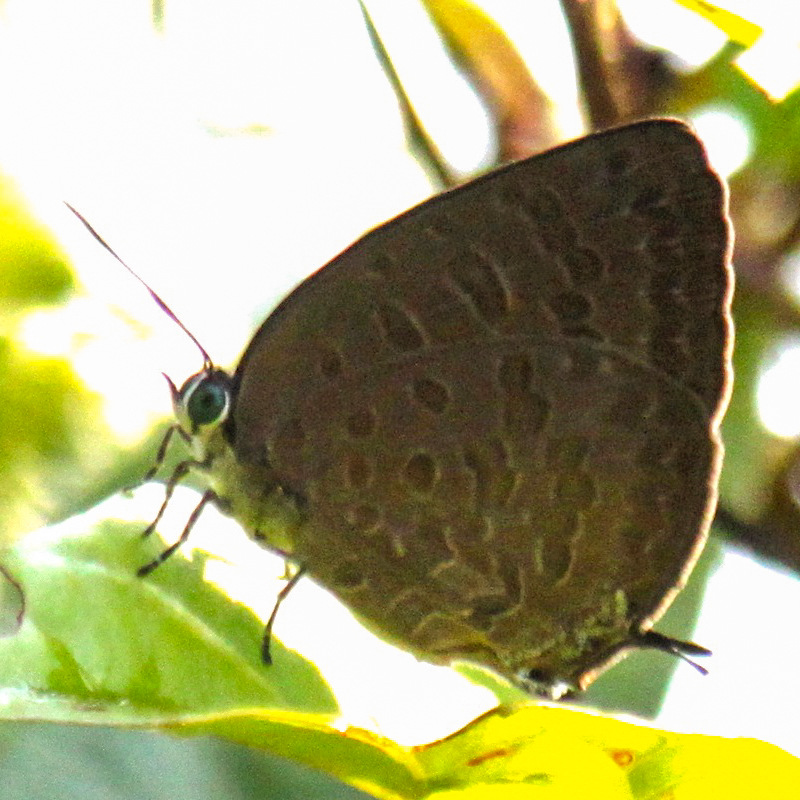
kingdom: Animalia
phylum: Arthropoda
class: Insecta
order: Lepidoptera
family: Lycaenidae
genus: Arhopala
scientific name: Arhopala ariana
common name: Pinkish-washed oakblue
